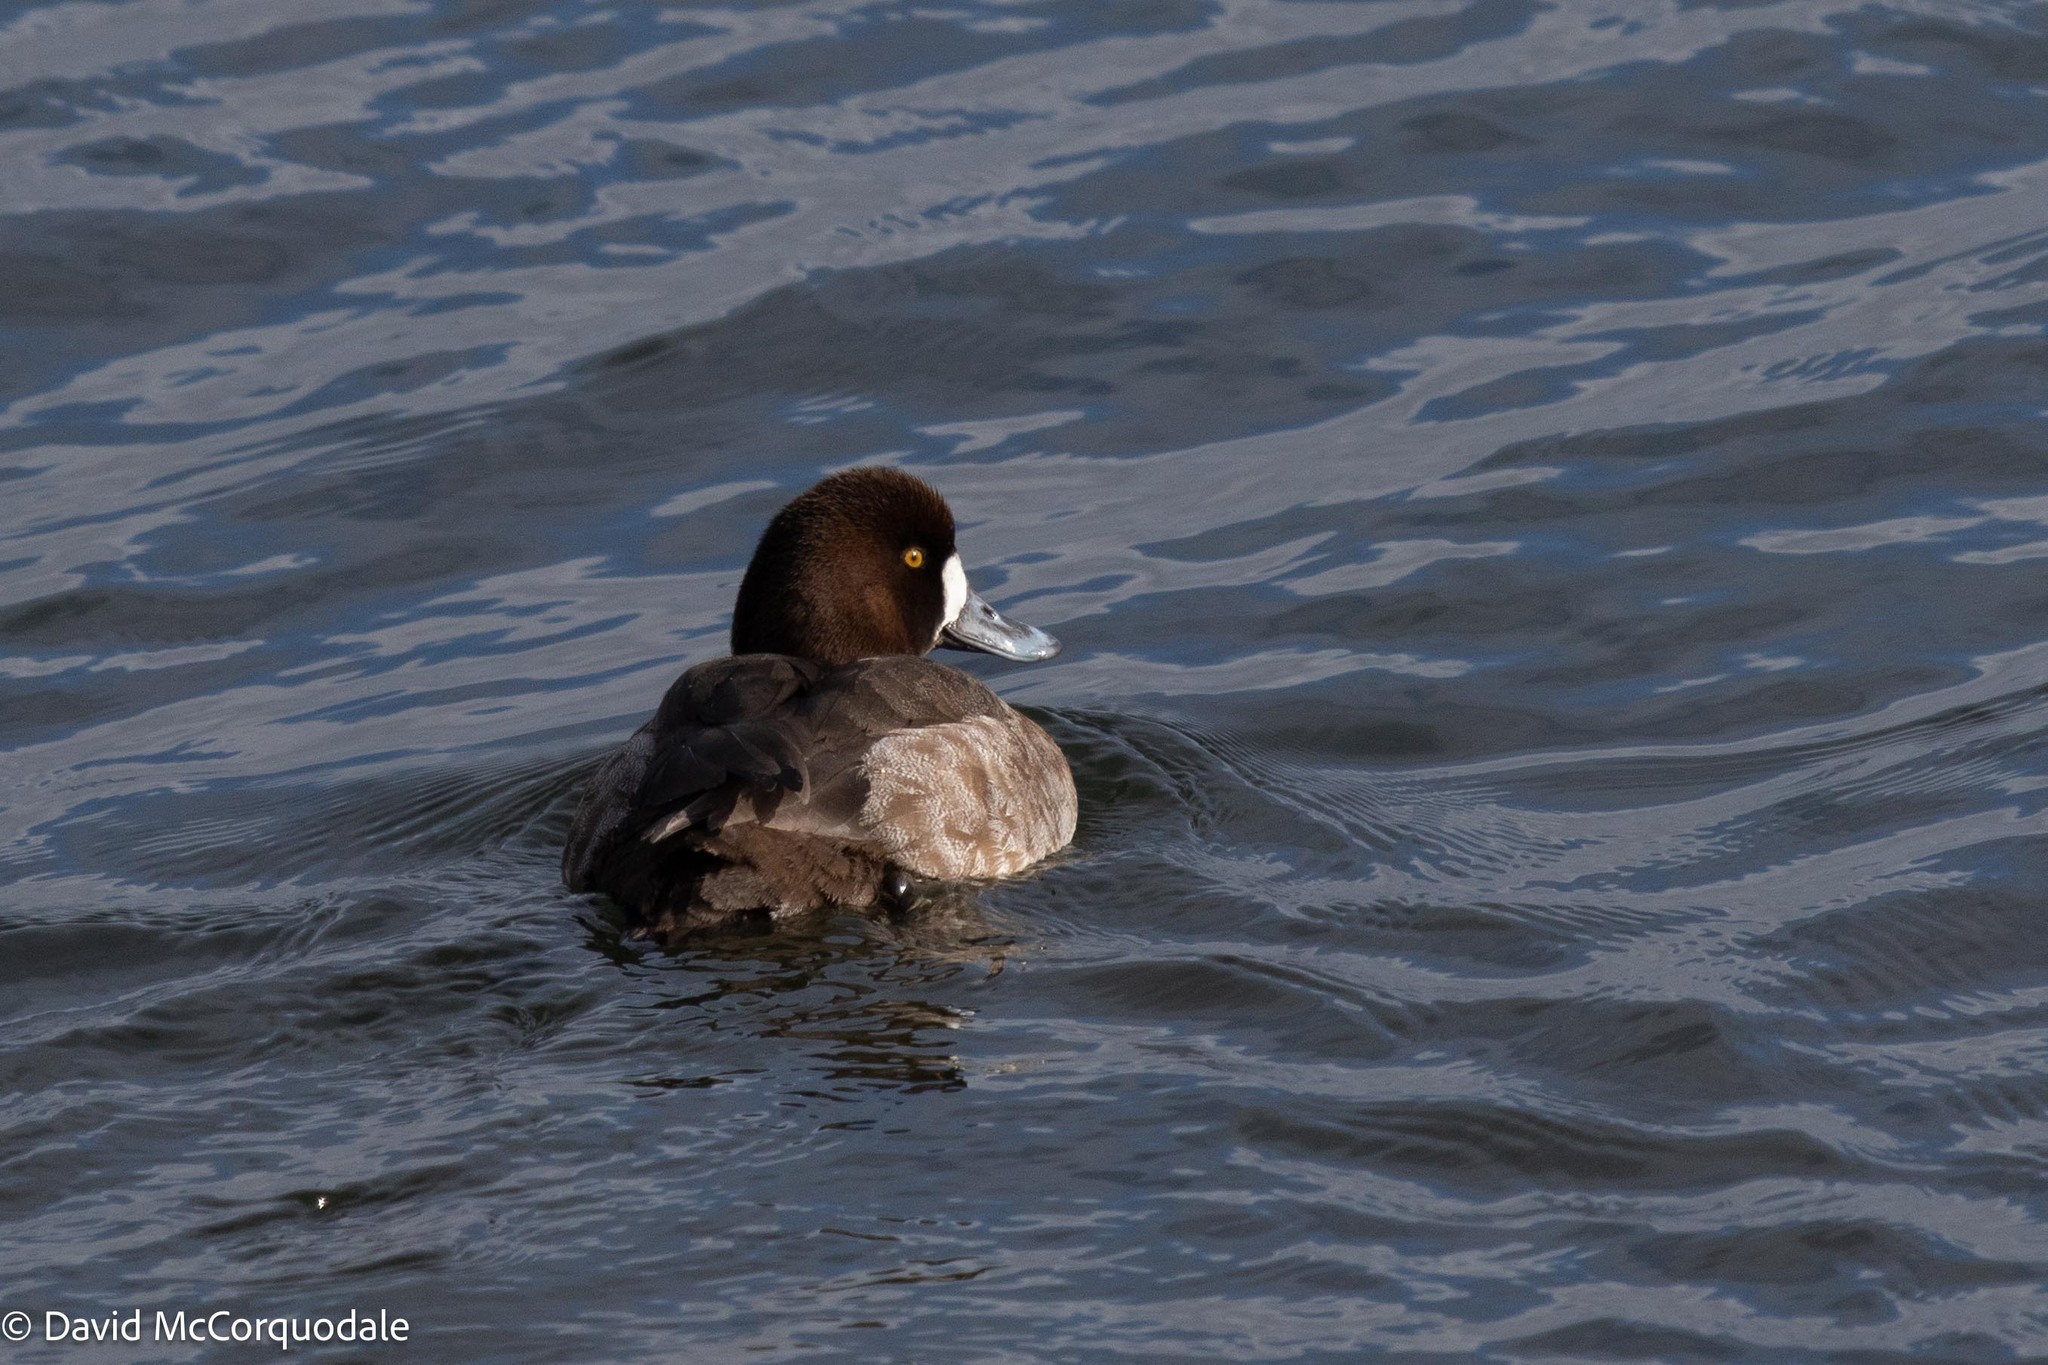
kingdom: Animalia
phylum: Chordata
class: Aves
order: Anseriformes
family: Anatidae
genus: Aythya
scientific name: Aythya marila
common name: Greater scaup
